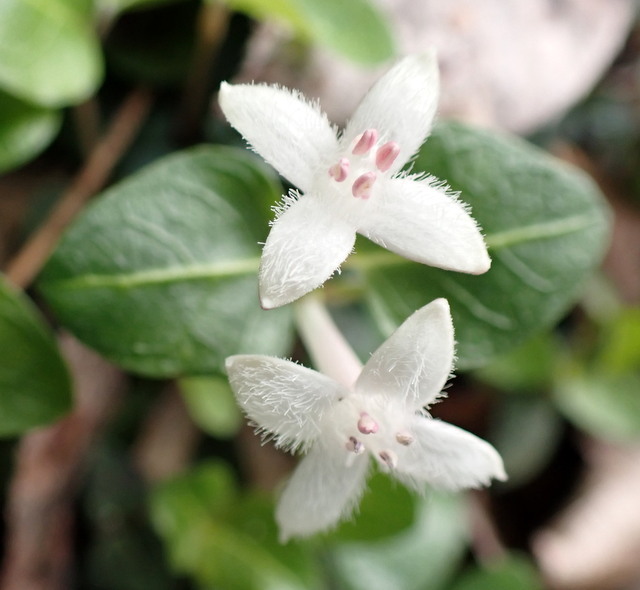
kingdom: Plantae
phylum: Tracheophyta
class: Magnoliopsida
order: Gentianales
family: Rubiaceae
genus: Mitchella
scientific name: Mitchella repens
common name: Partridge-berry
